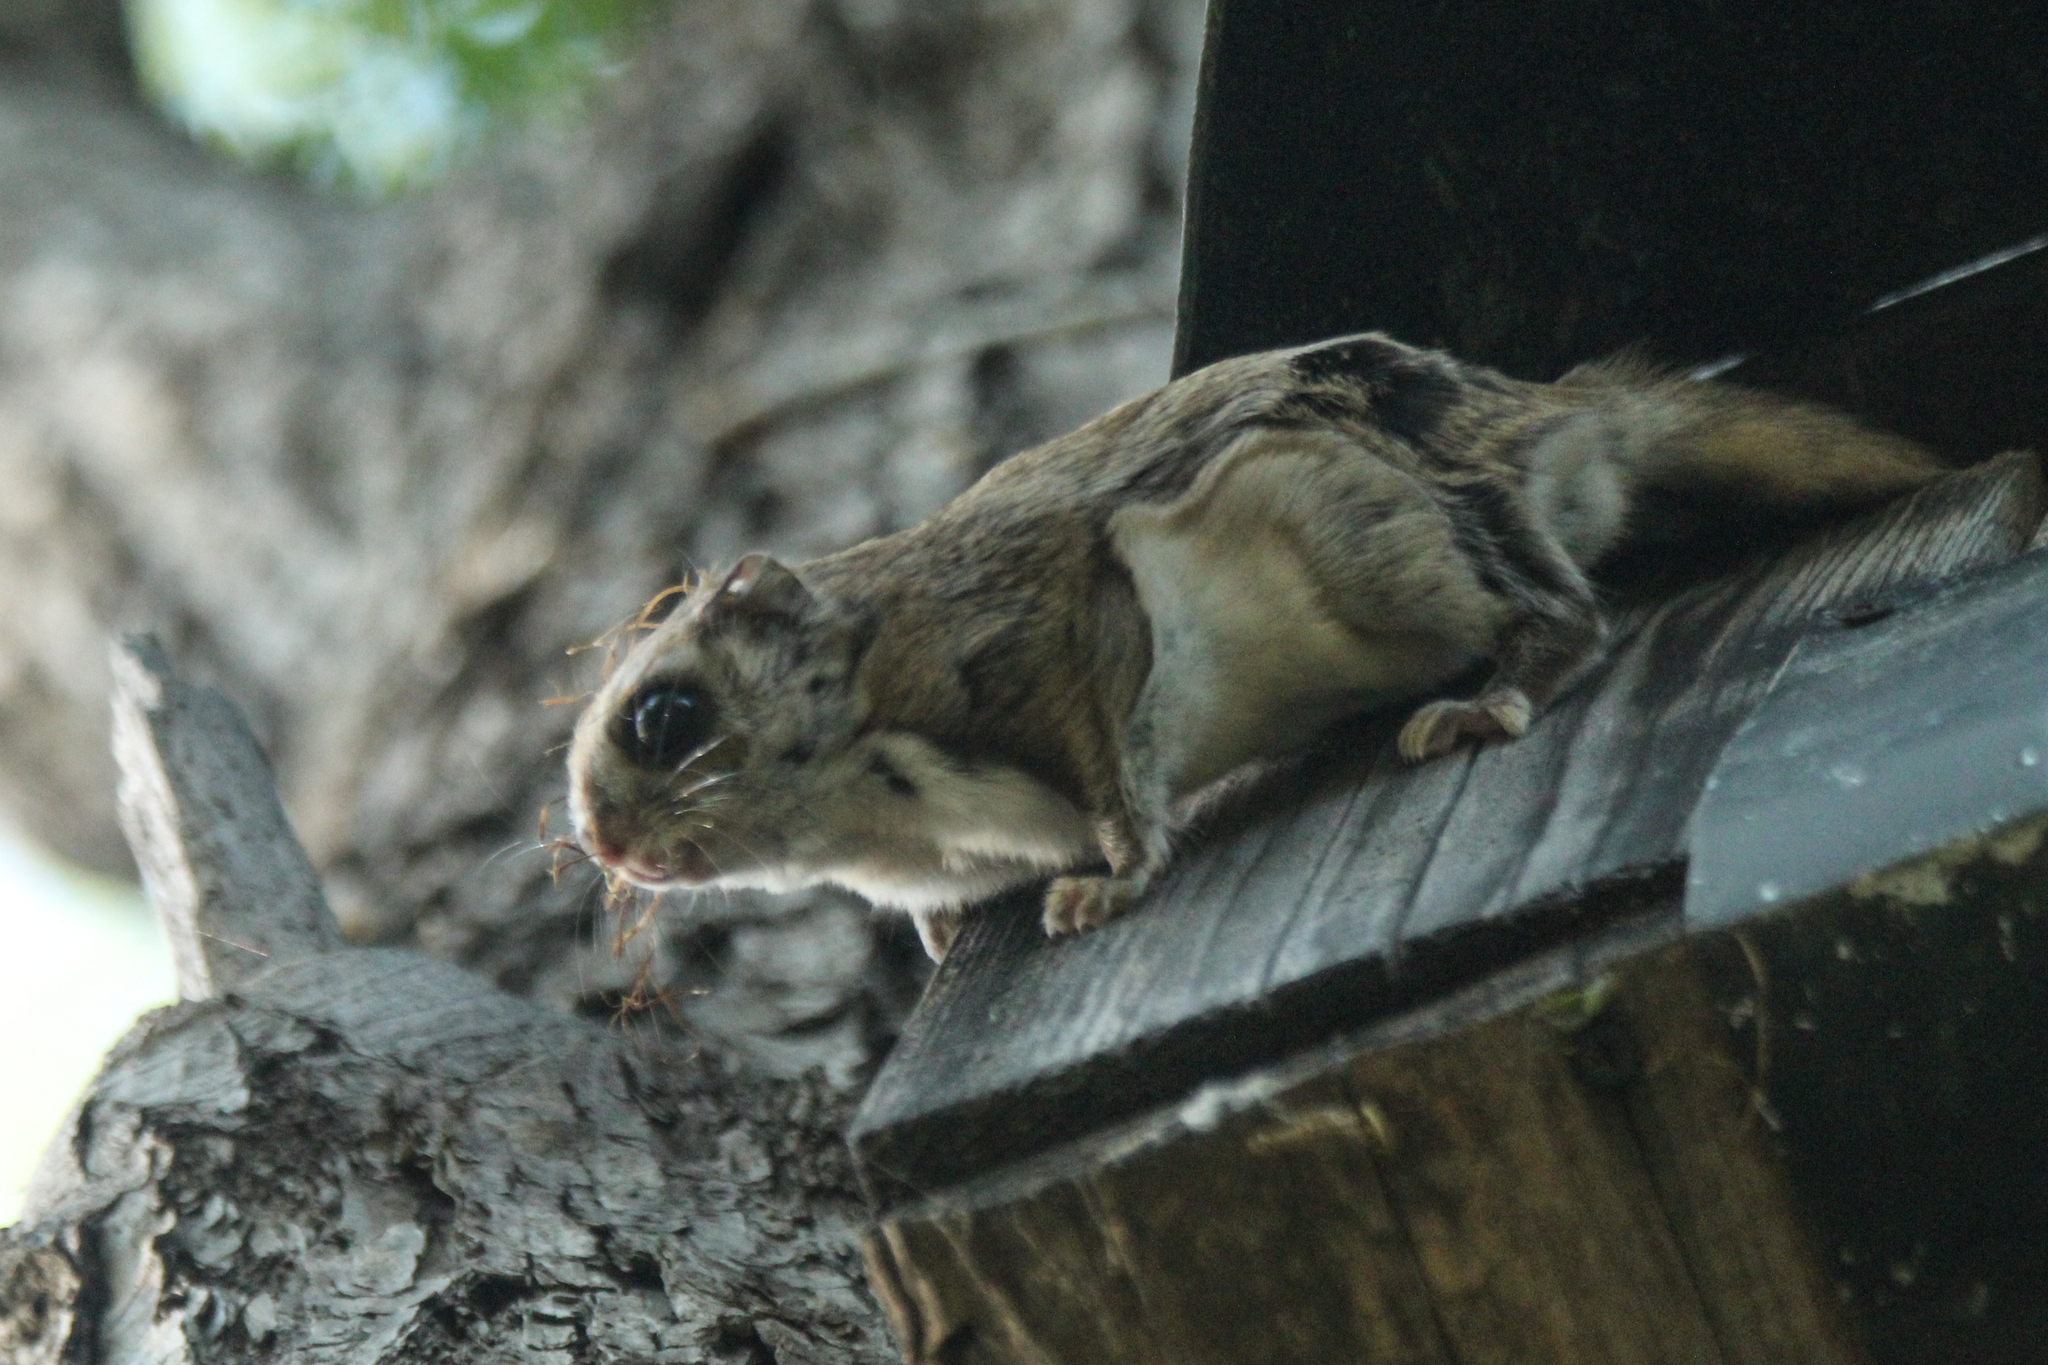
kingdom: Animalia
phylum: Chordata
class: Mammalia
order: Rodentia
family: Sciuridae
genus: Pteromys
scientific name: Pteromys volans
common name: Siberian flying squirrel
